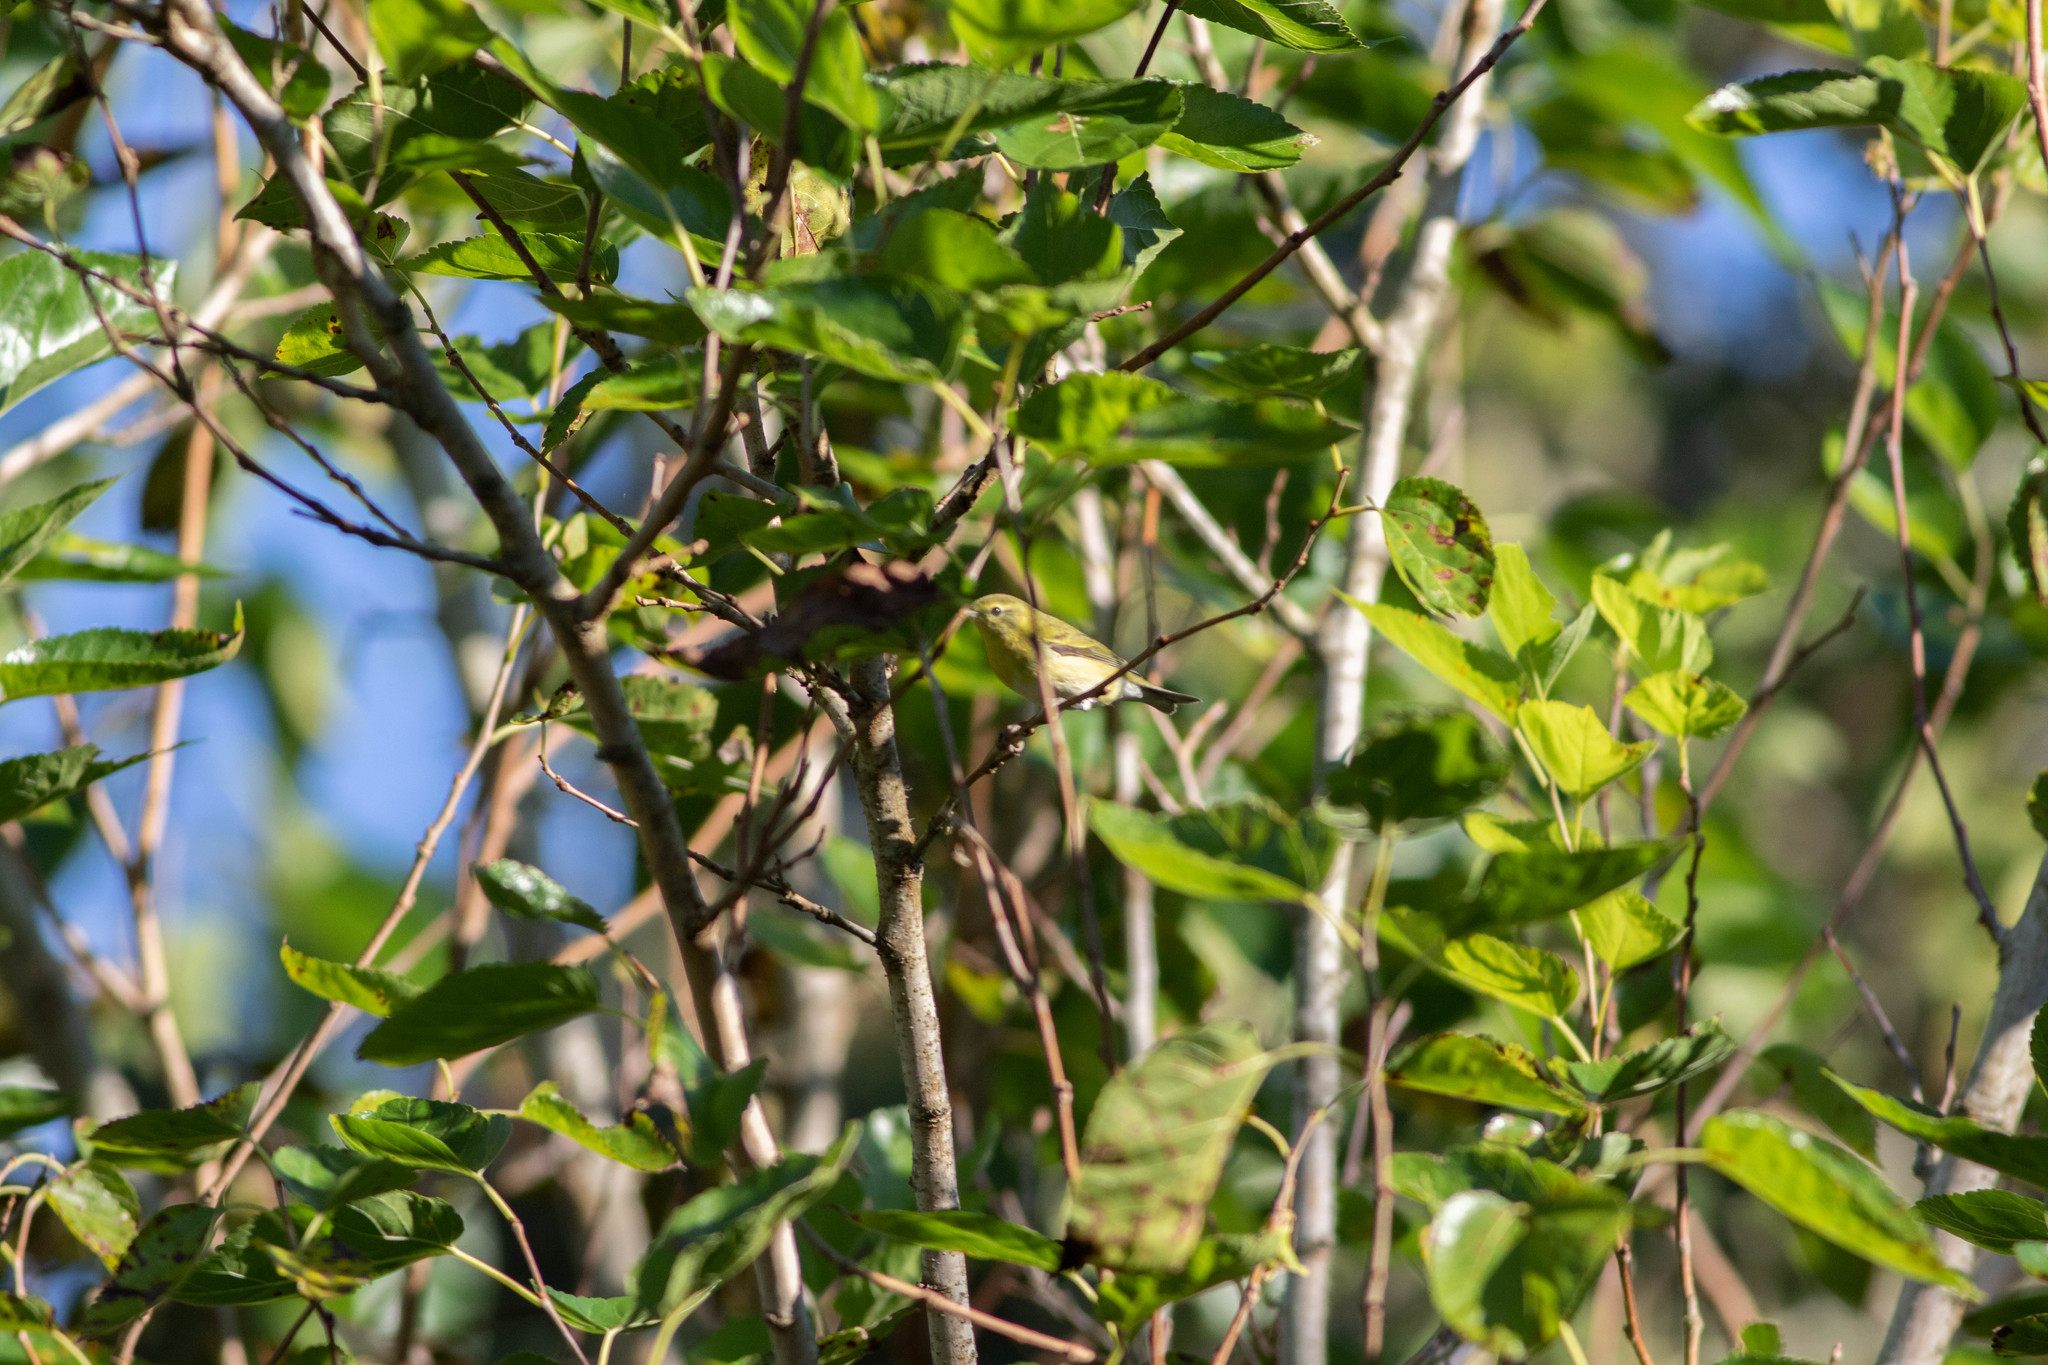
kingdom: Animalia
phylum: Chordata
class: Aves
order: Passeriformes
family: Parulidae
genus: Leiothlypis
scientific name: Leiothlypis peregrina
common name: Tennessee warbler
